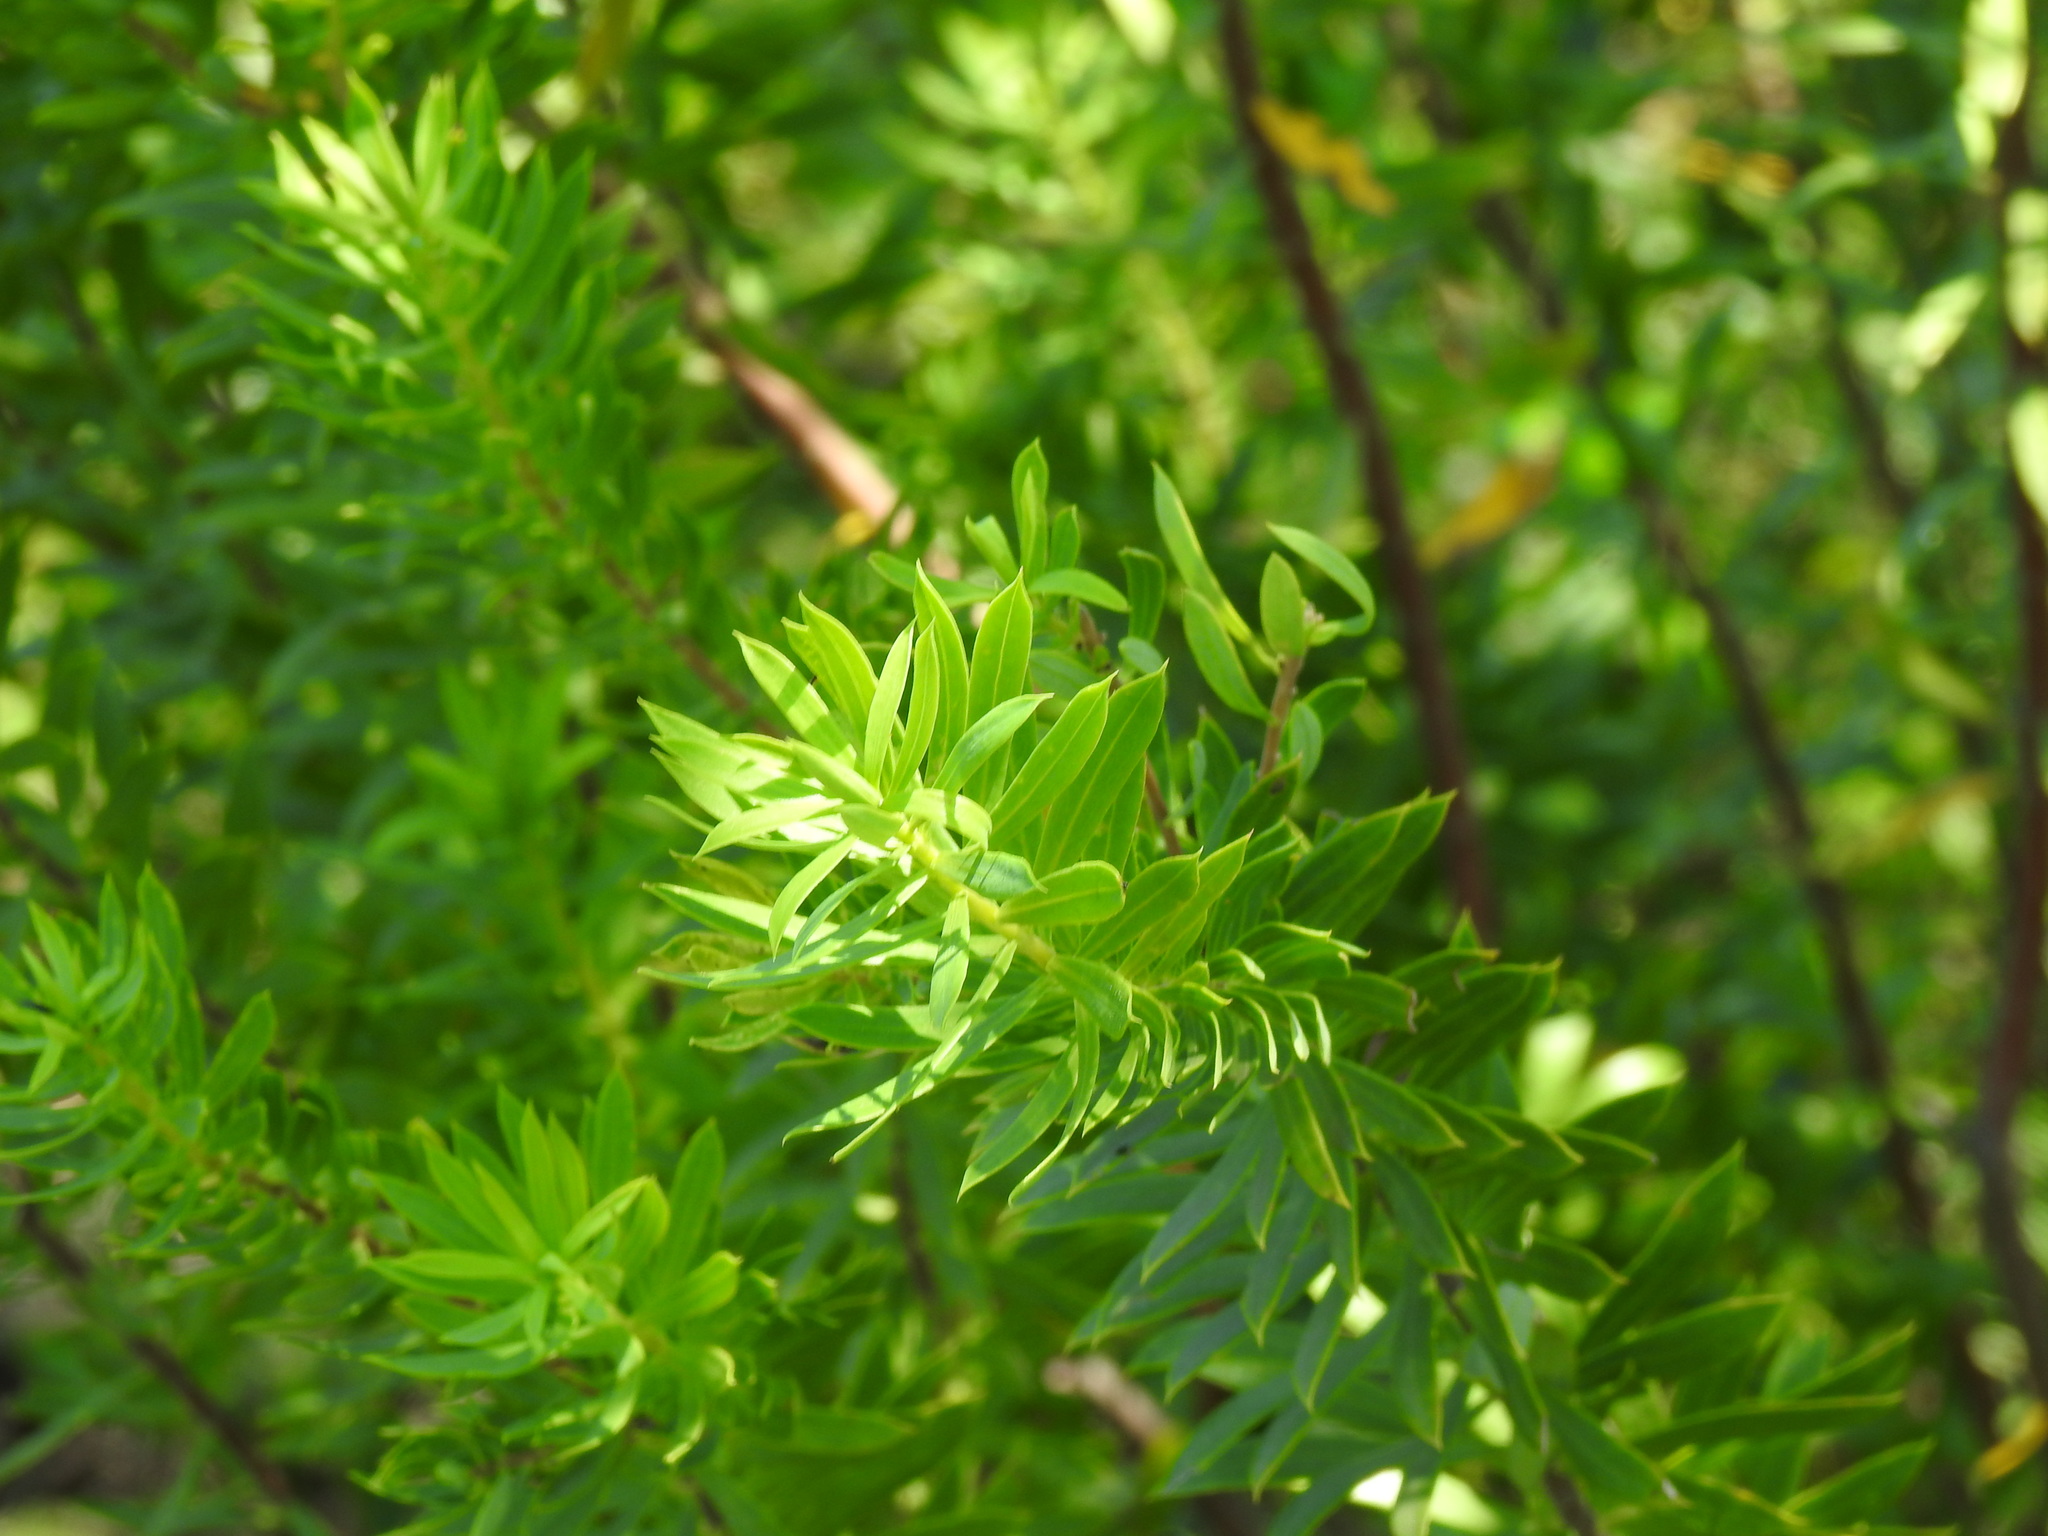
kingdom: Plantae
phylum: Tracheophyta
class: Magnoliopsida
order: Malvales
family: Thymelaeaceae
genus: Daphne
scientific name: Daphne gnidium
